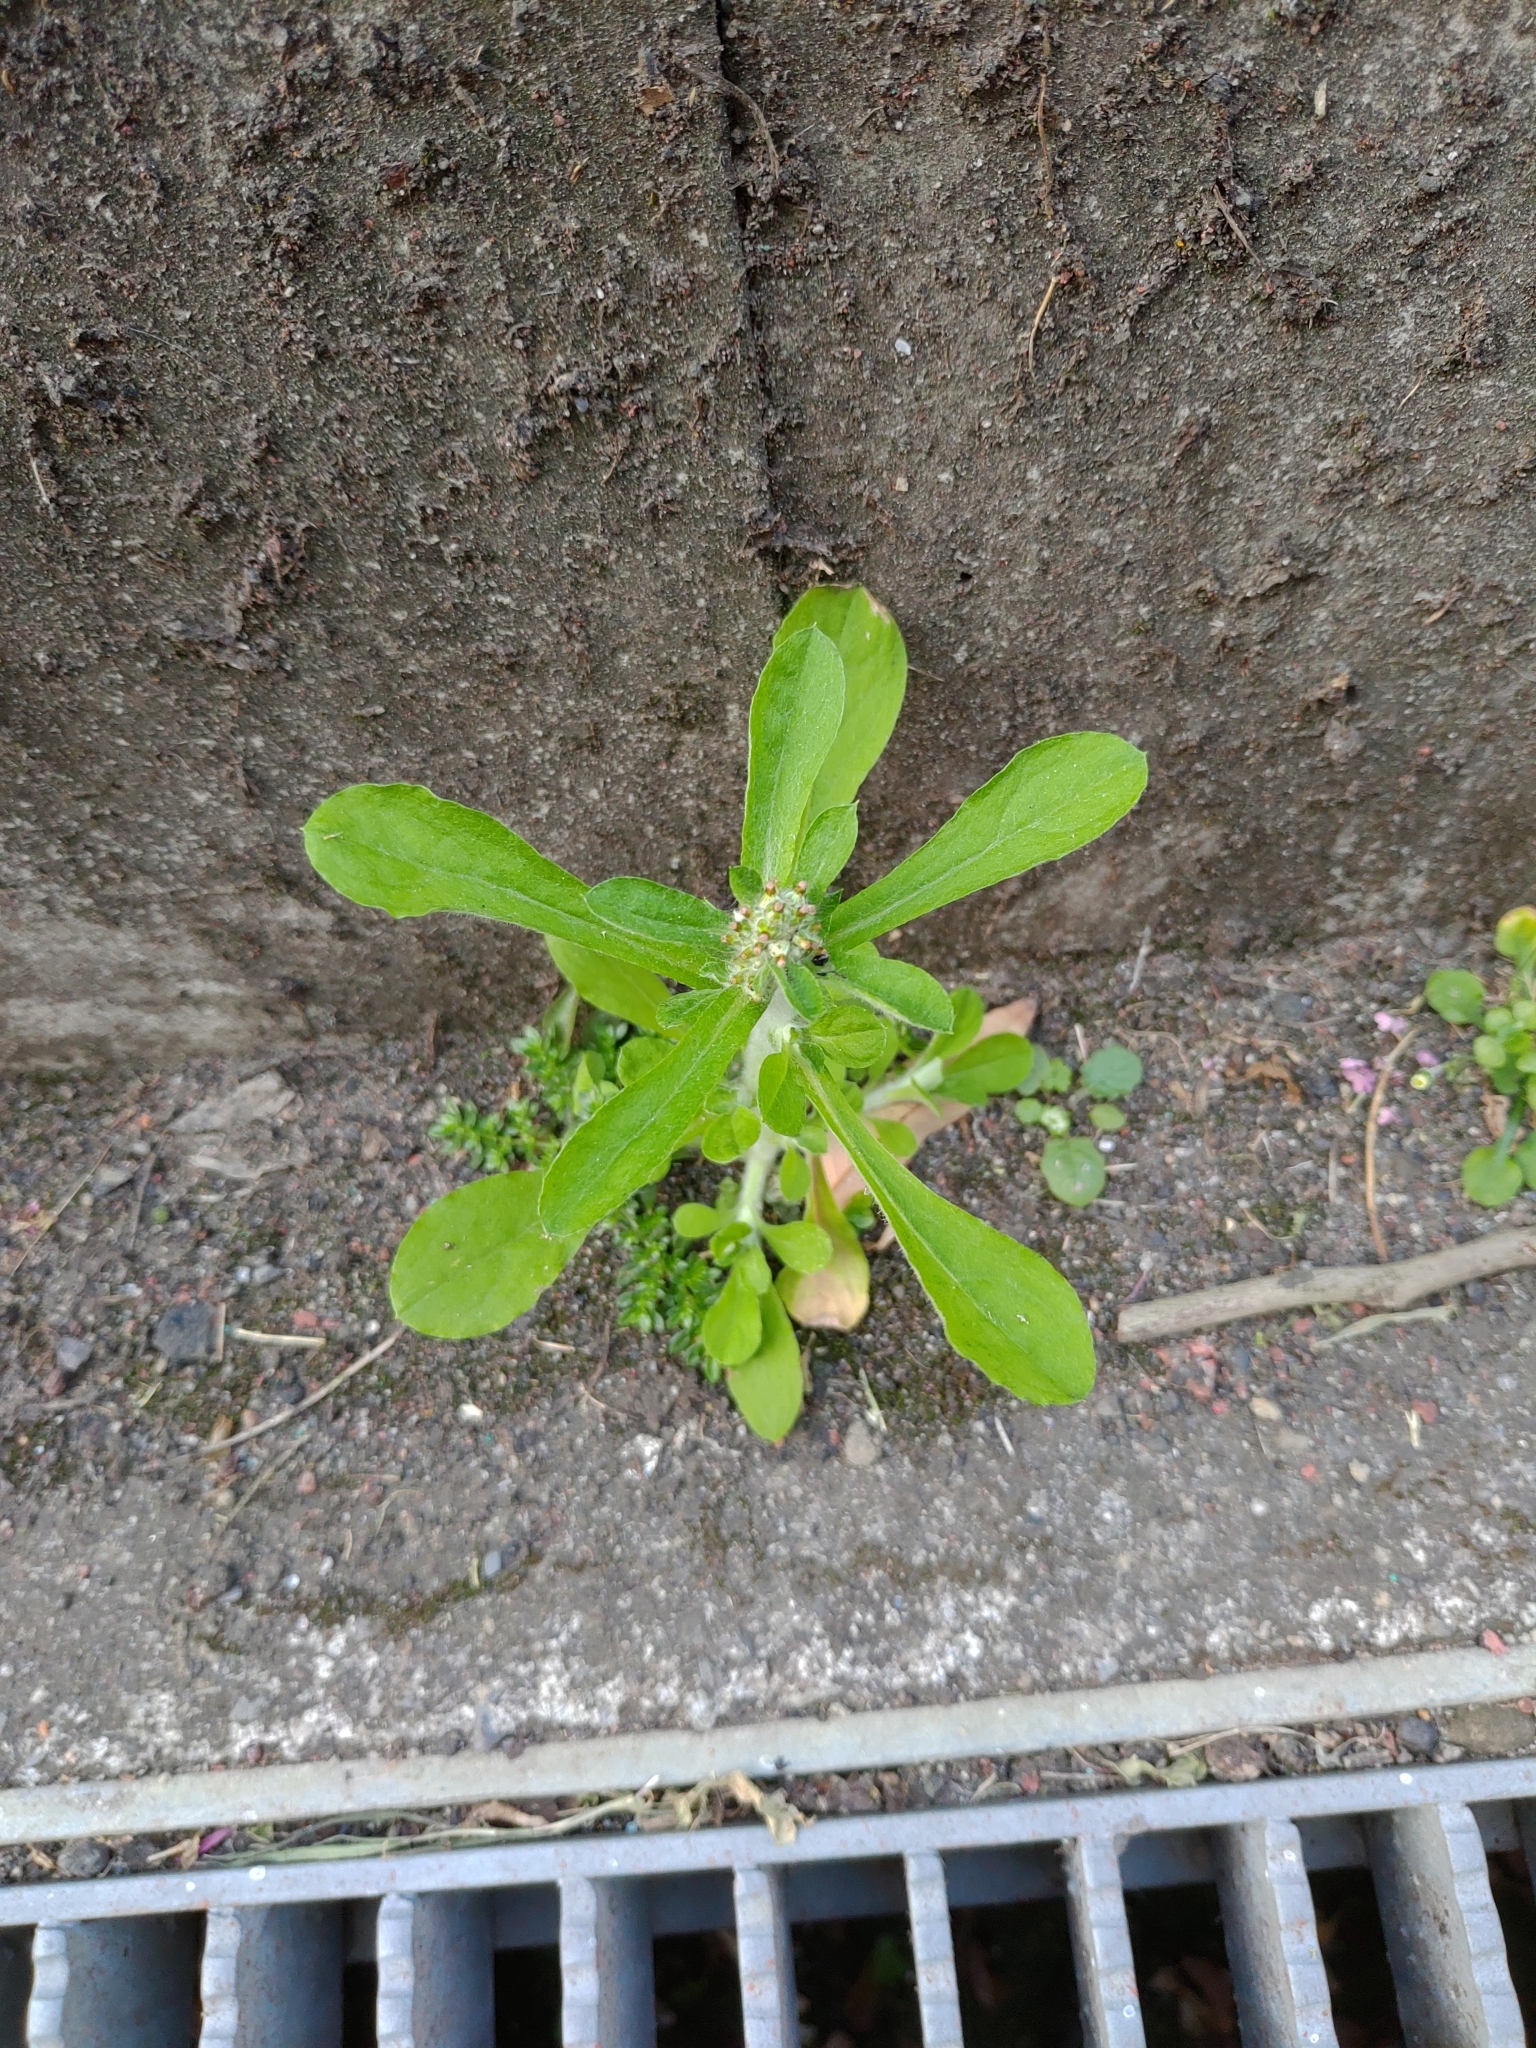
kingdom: Plantae
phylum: Tracheophyta
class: Magnoliopsida
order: Asterales
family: Asteraceae
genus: Gamochaeta
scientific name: Gamochaeta pensylvanica
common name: Pennsylvania everlasting
